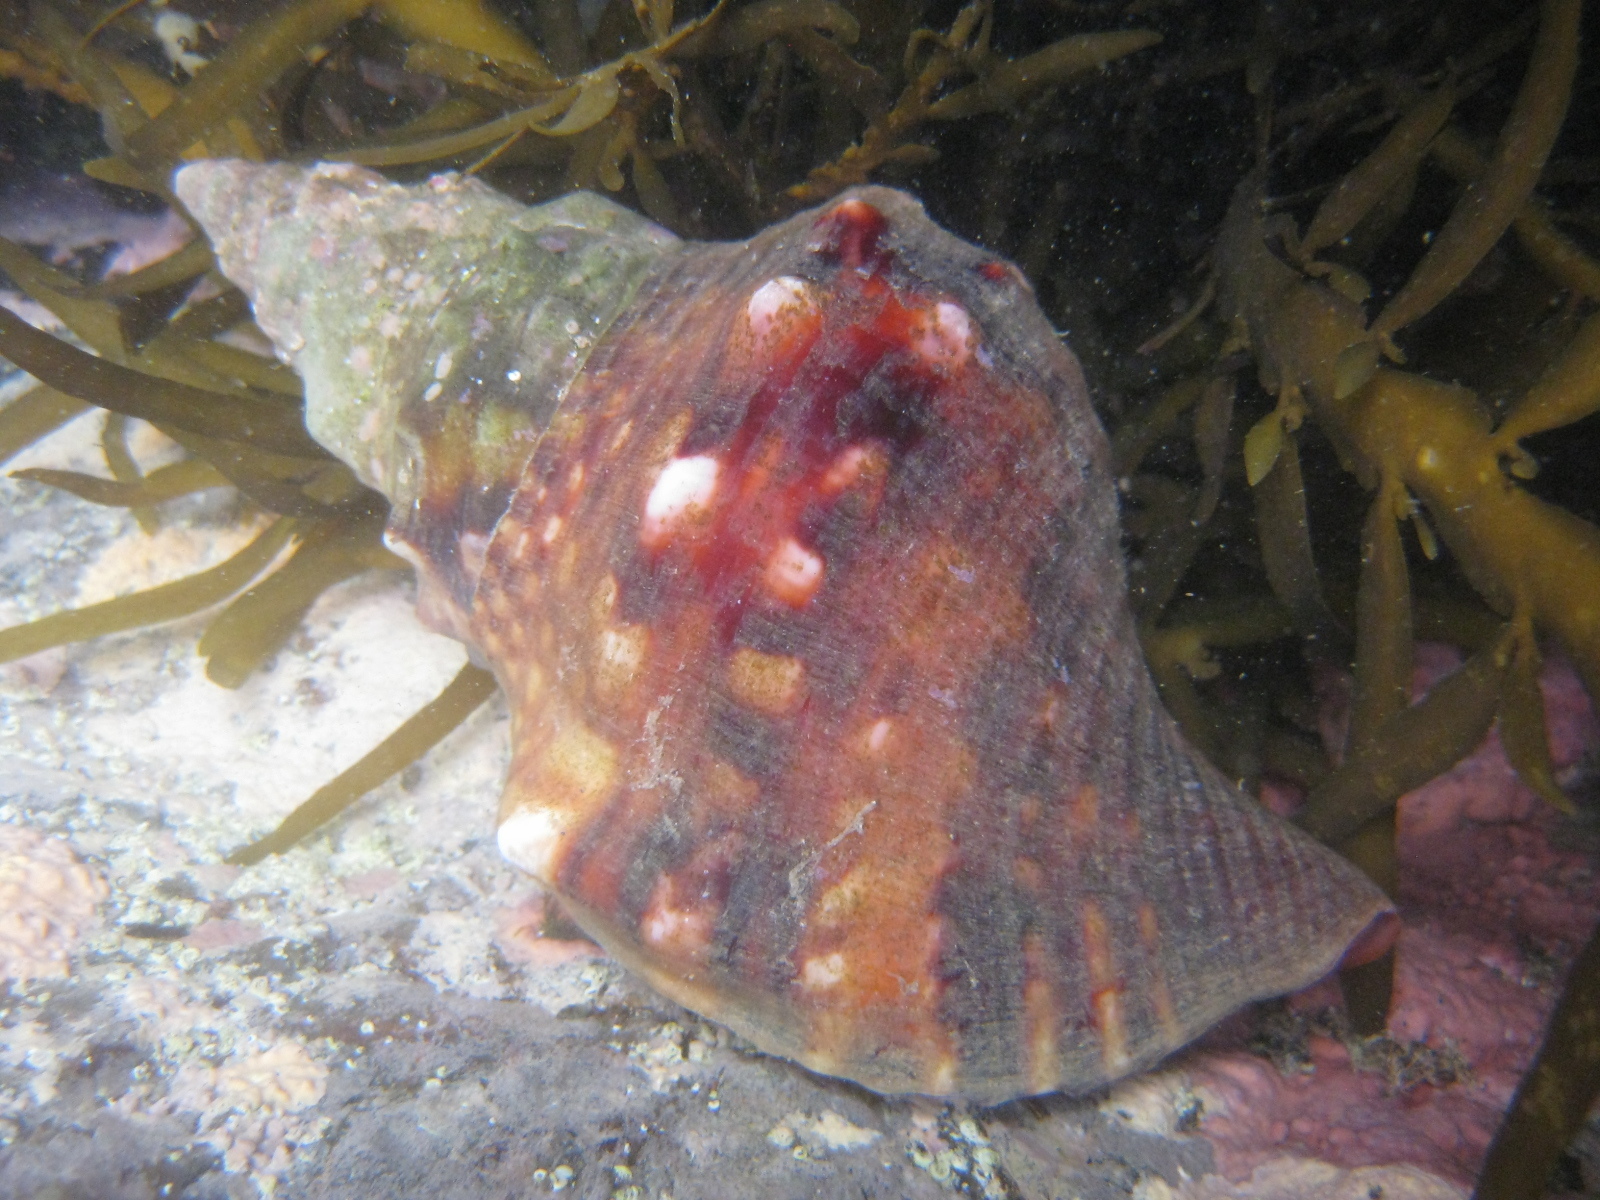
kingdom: Animalia
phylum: Mollusca
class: Gastropoda
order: Littorinimorpha
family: Charoniidae
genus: Charonia
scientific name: Charonia lampas
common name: Knobbed triton
